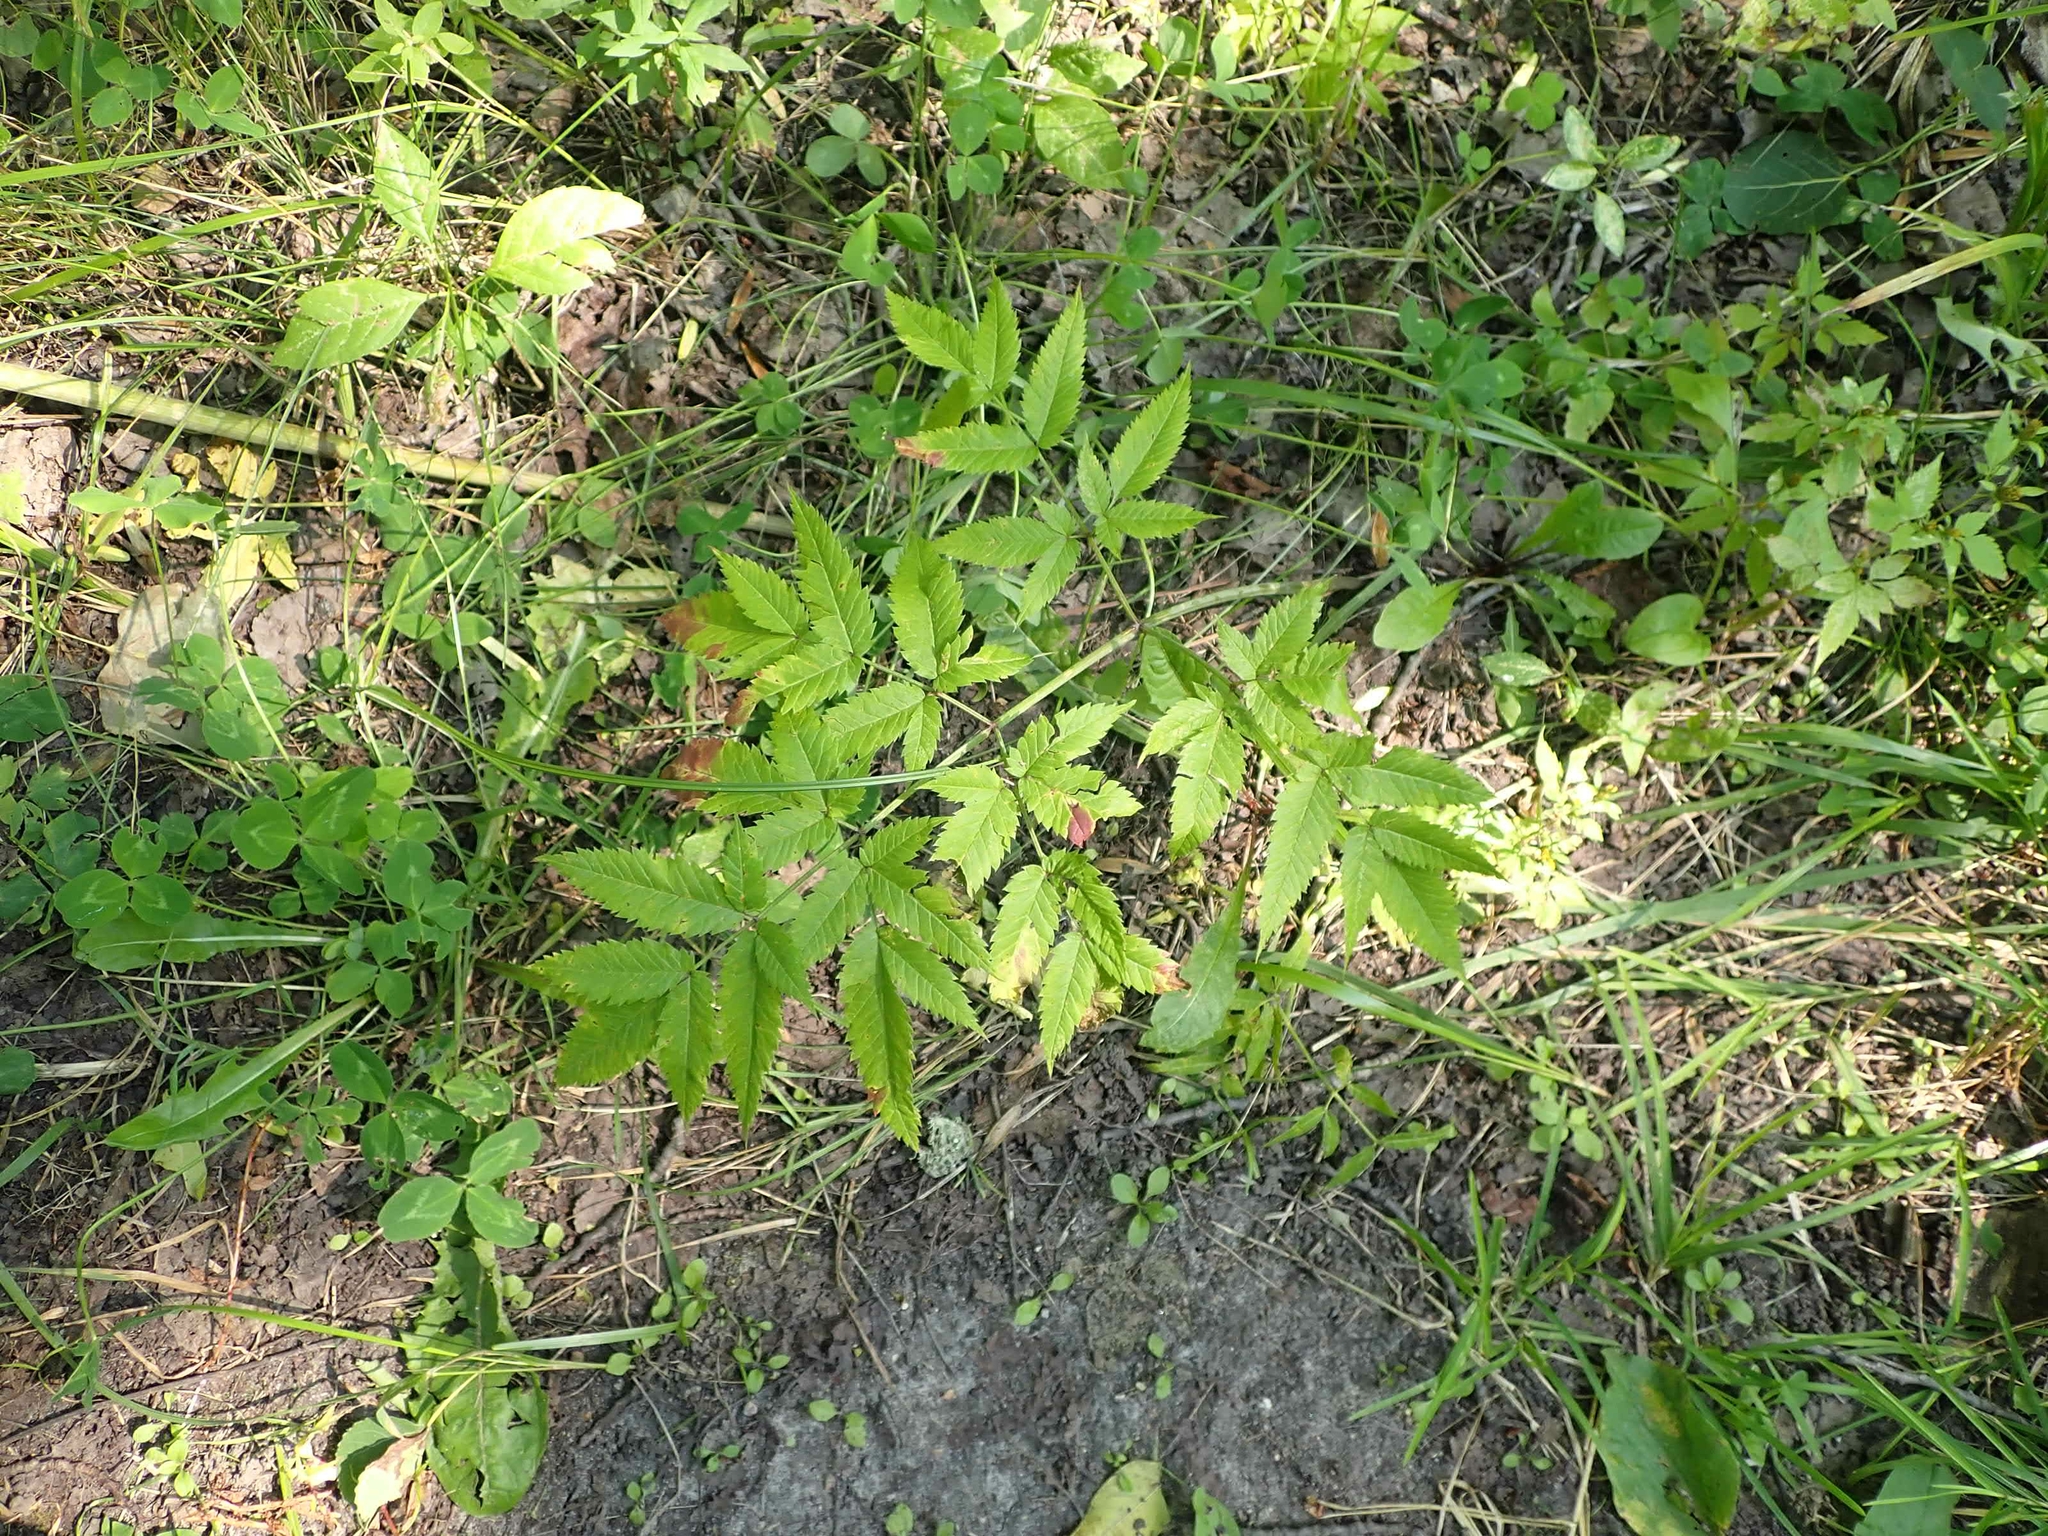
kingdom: Plantae
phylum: Tracheophyta
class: Magnoliopsida
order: Apiales
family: Apiaceae
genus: Cicuta
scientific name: Cicuta maculata
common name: Spotted cowbane
